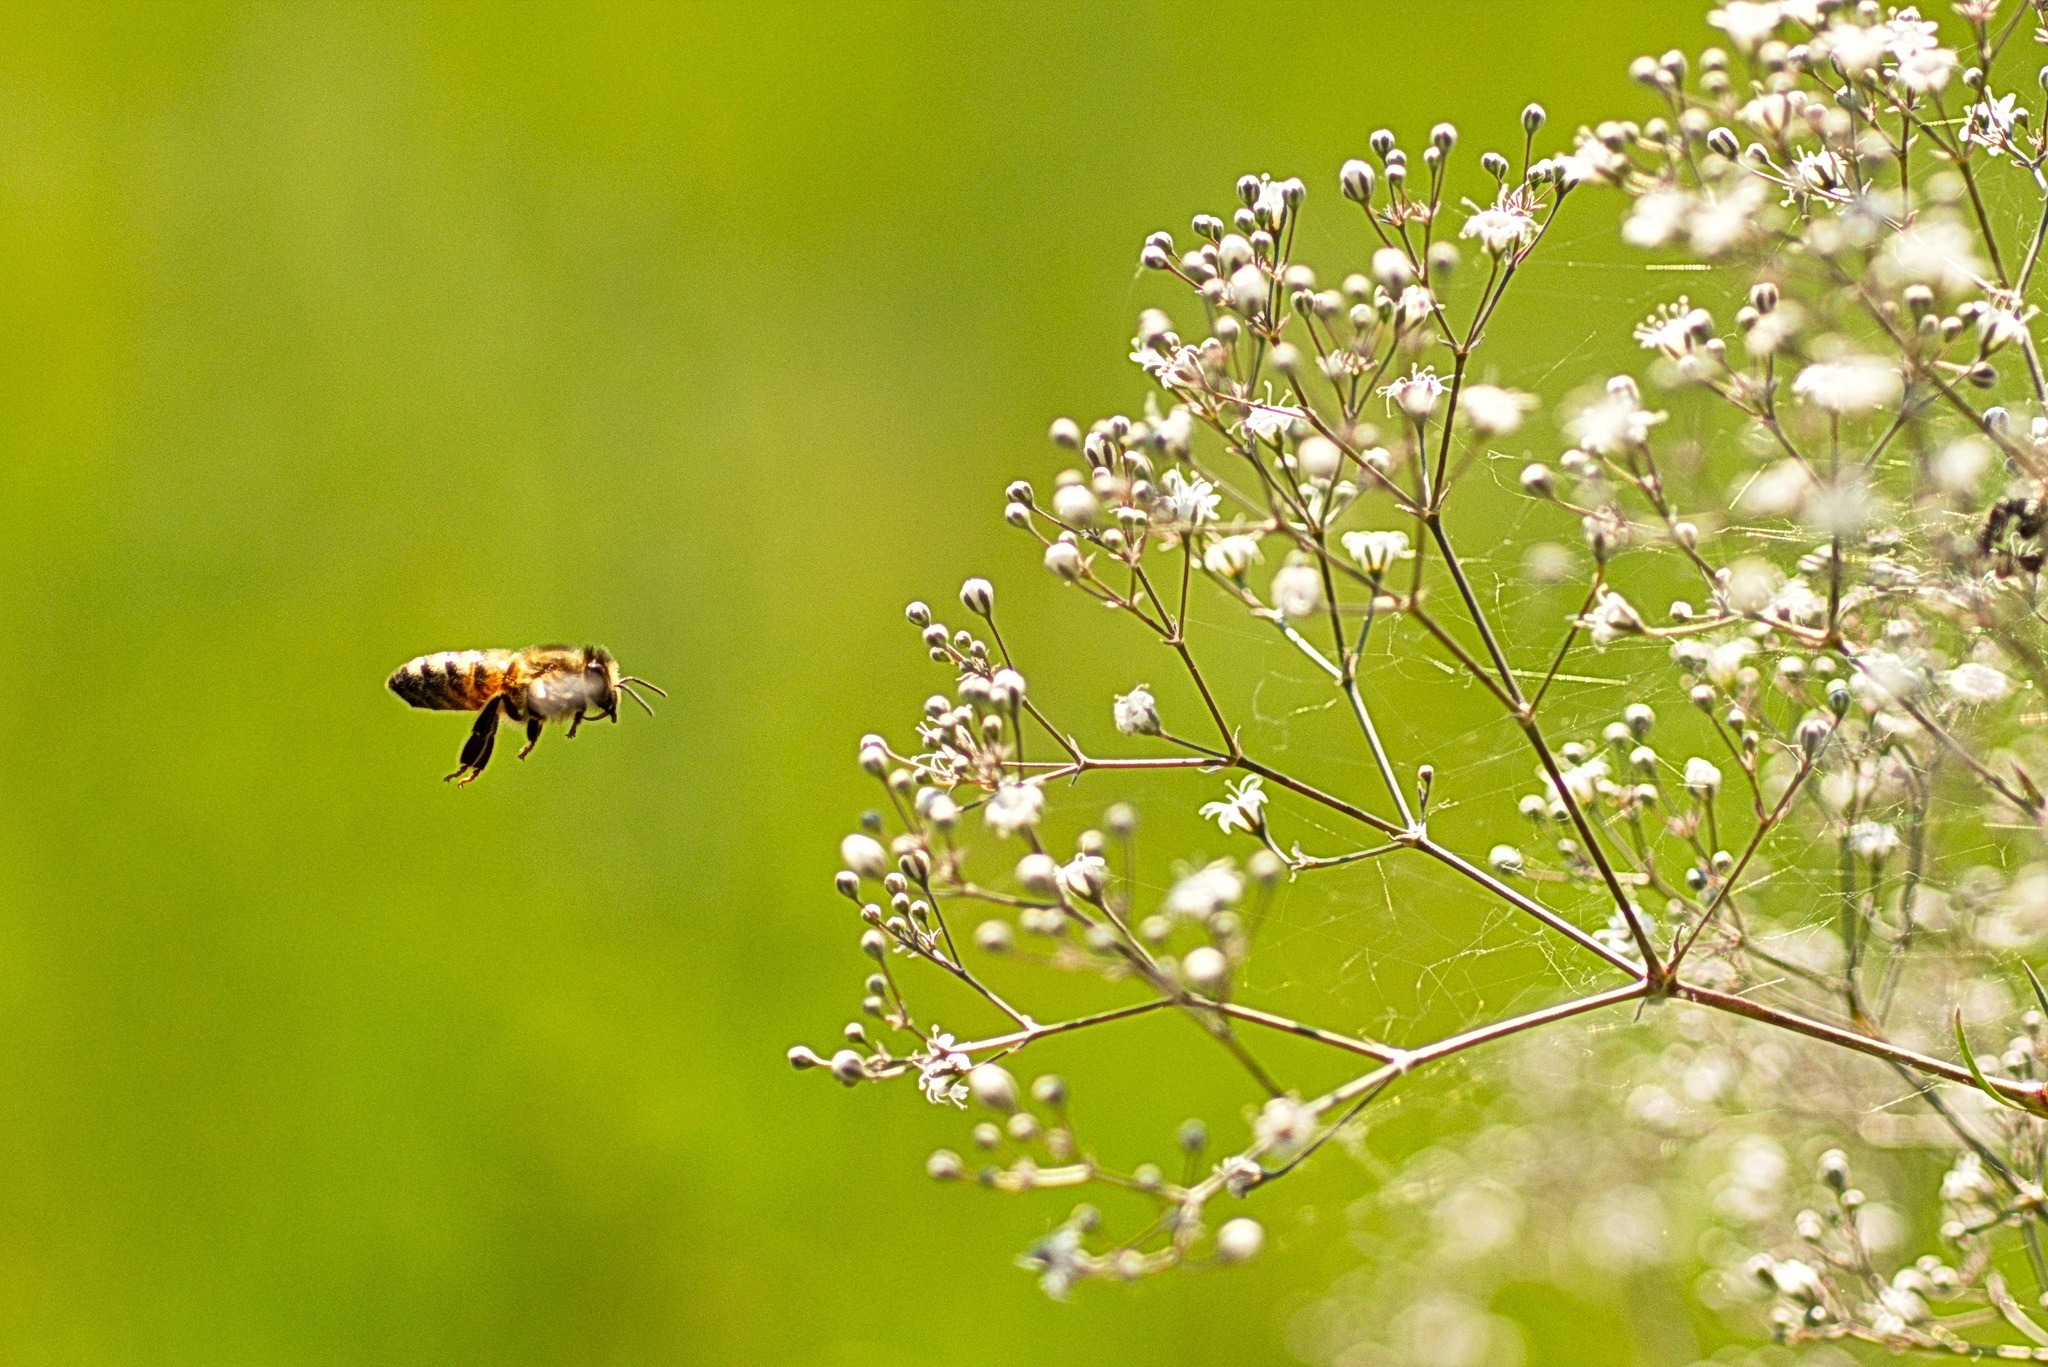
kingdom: Animalia
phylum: Arthropoda
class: Insecta
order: Hymenoptera
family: Apidae
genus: Apis
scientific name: Apis mellifera
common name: Honey bee
